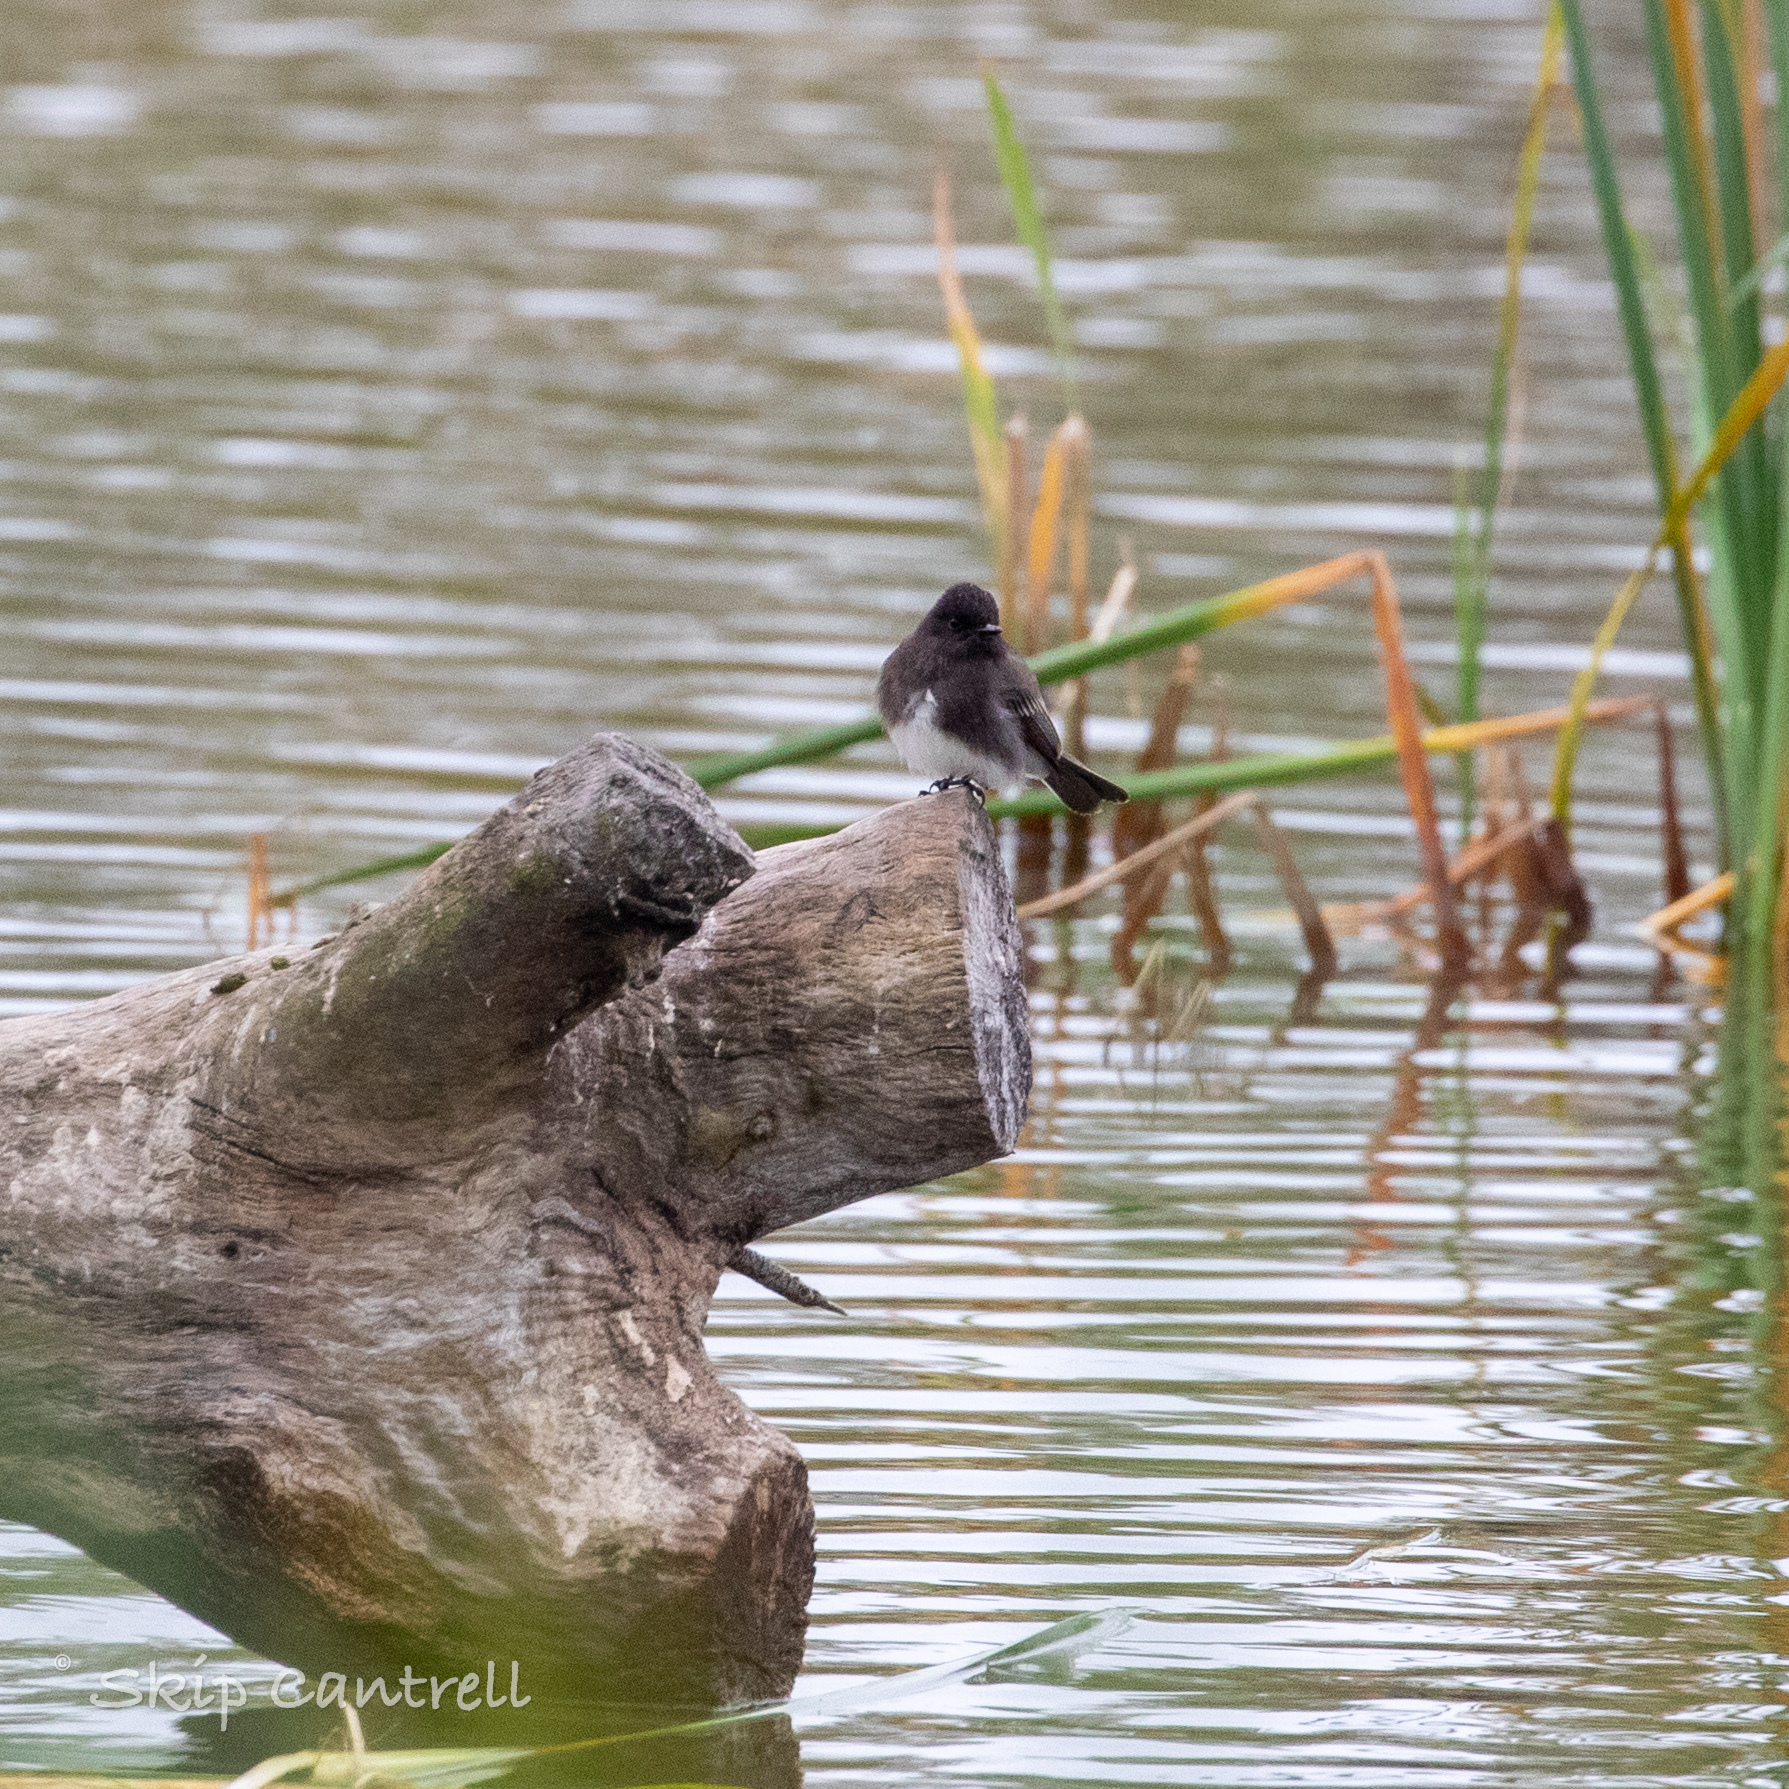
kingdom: Animalia
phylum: Chordata
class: Aves
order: Passeriformes
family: Tyrannidae
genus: Sayornis
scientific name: Sayornis nigricans
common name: Black phoebe
